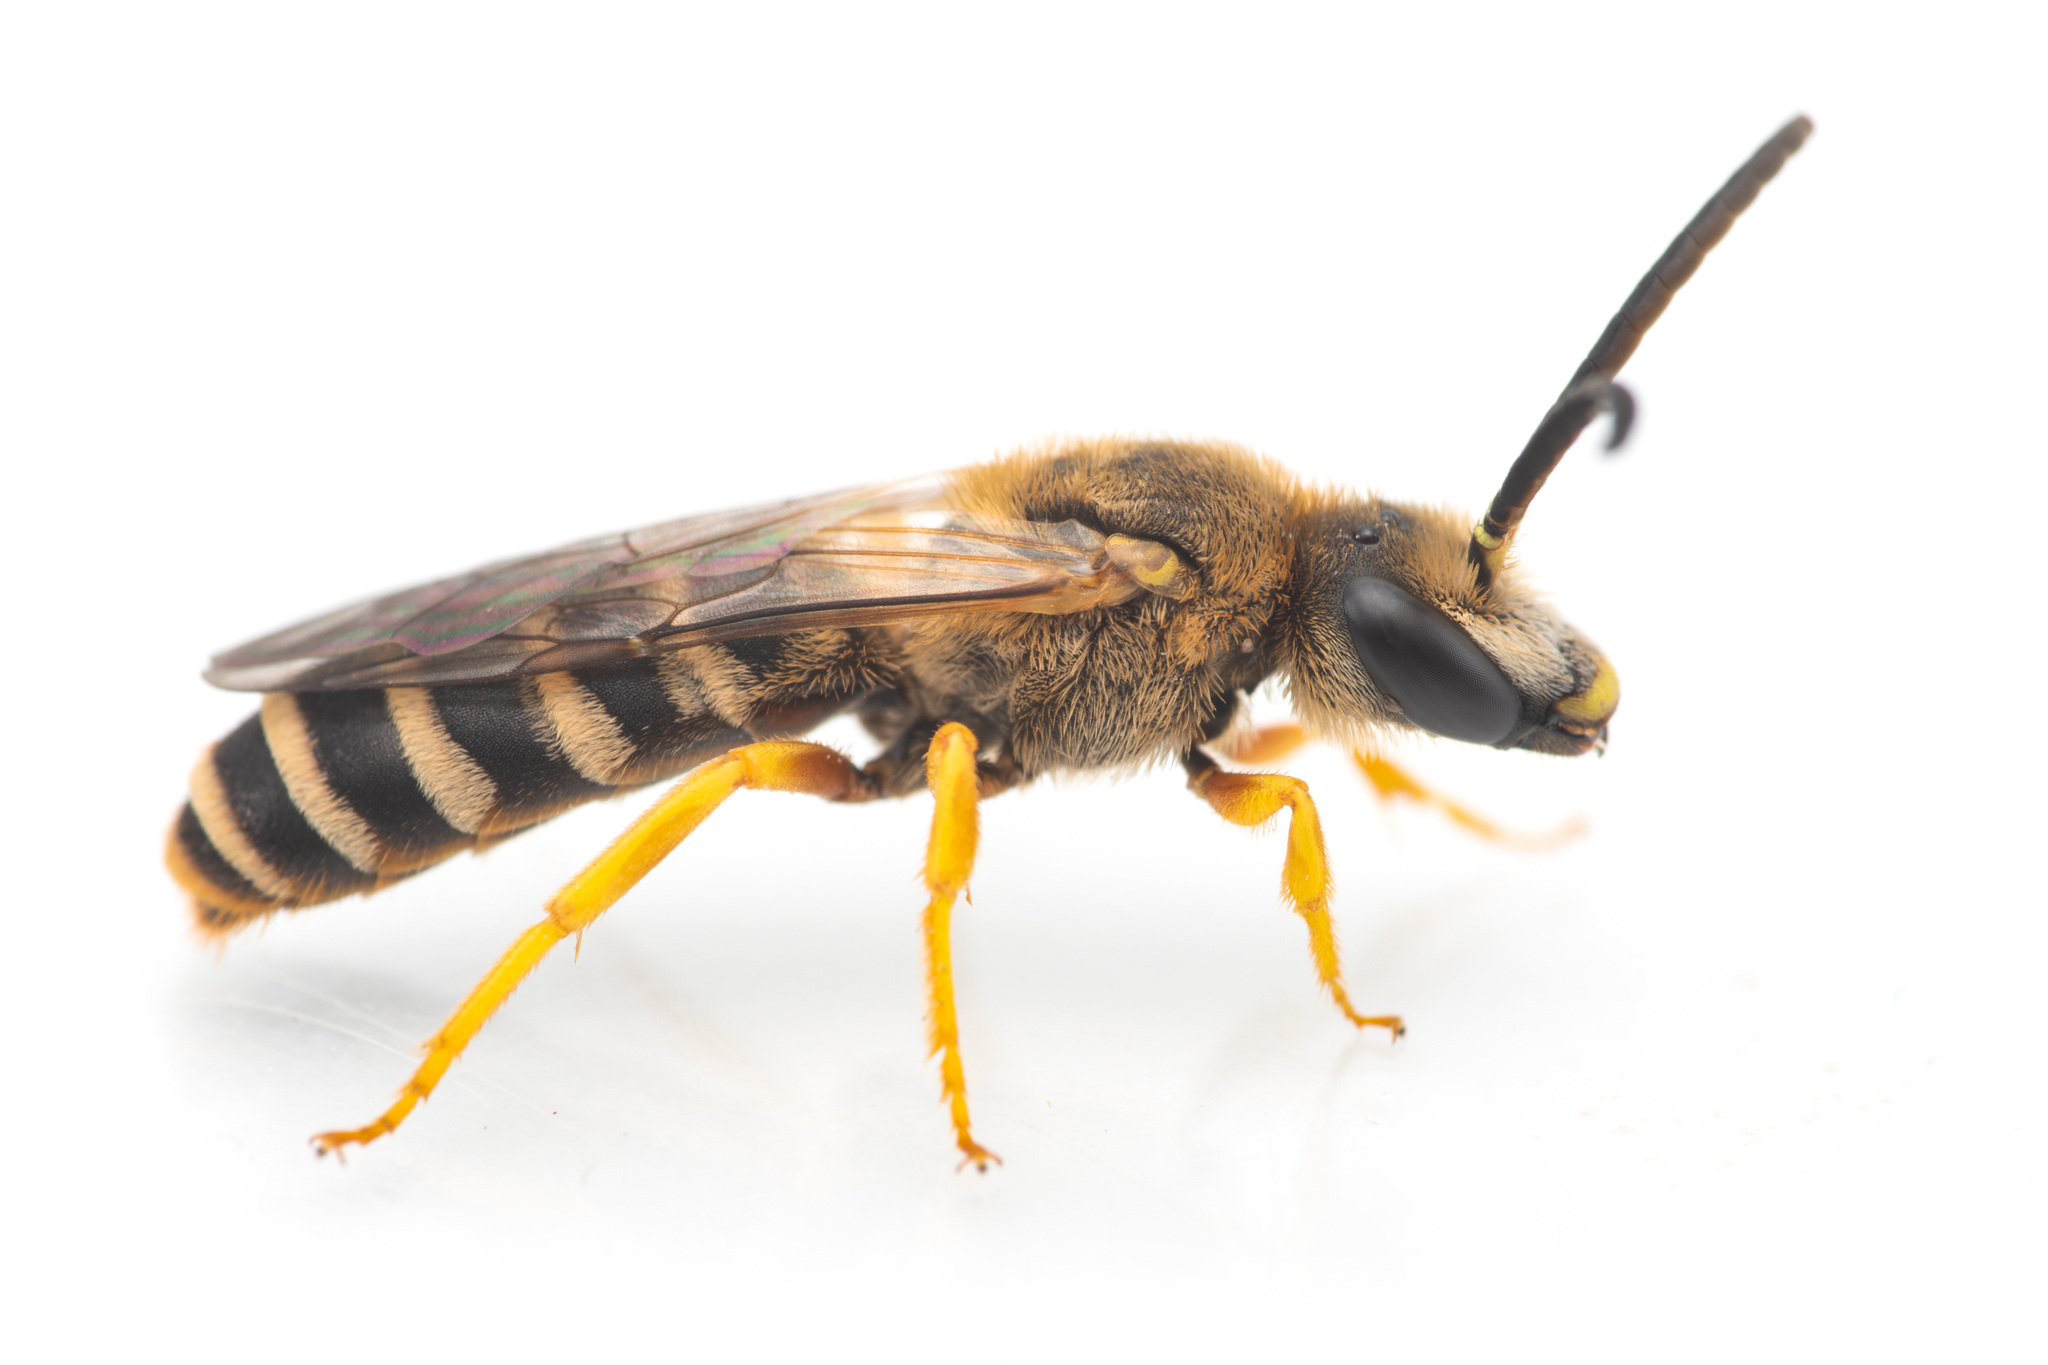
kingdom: Animalia
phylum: Arthropoda
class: Insecta
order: Hymenoptera
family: Halictidae
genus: Halictus
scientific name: Halictus scabiosae
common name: Great banded furrow bee
